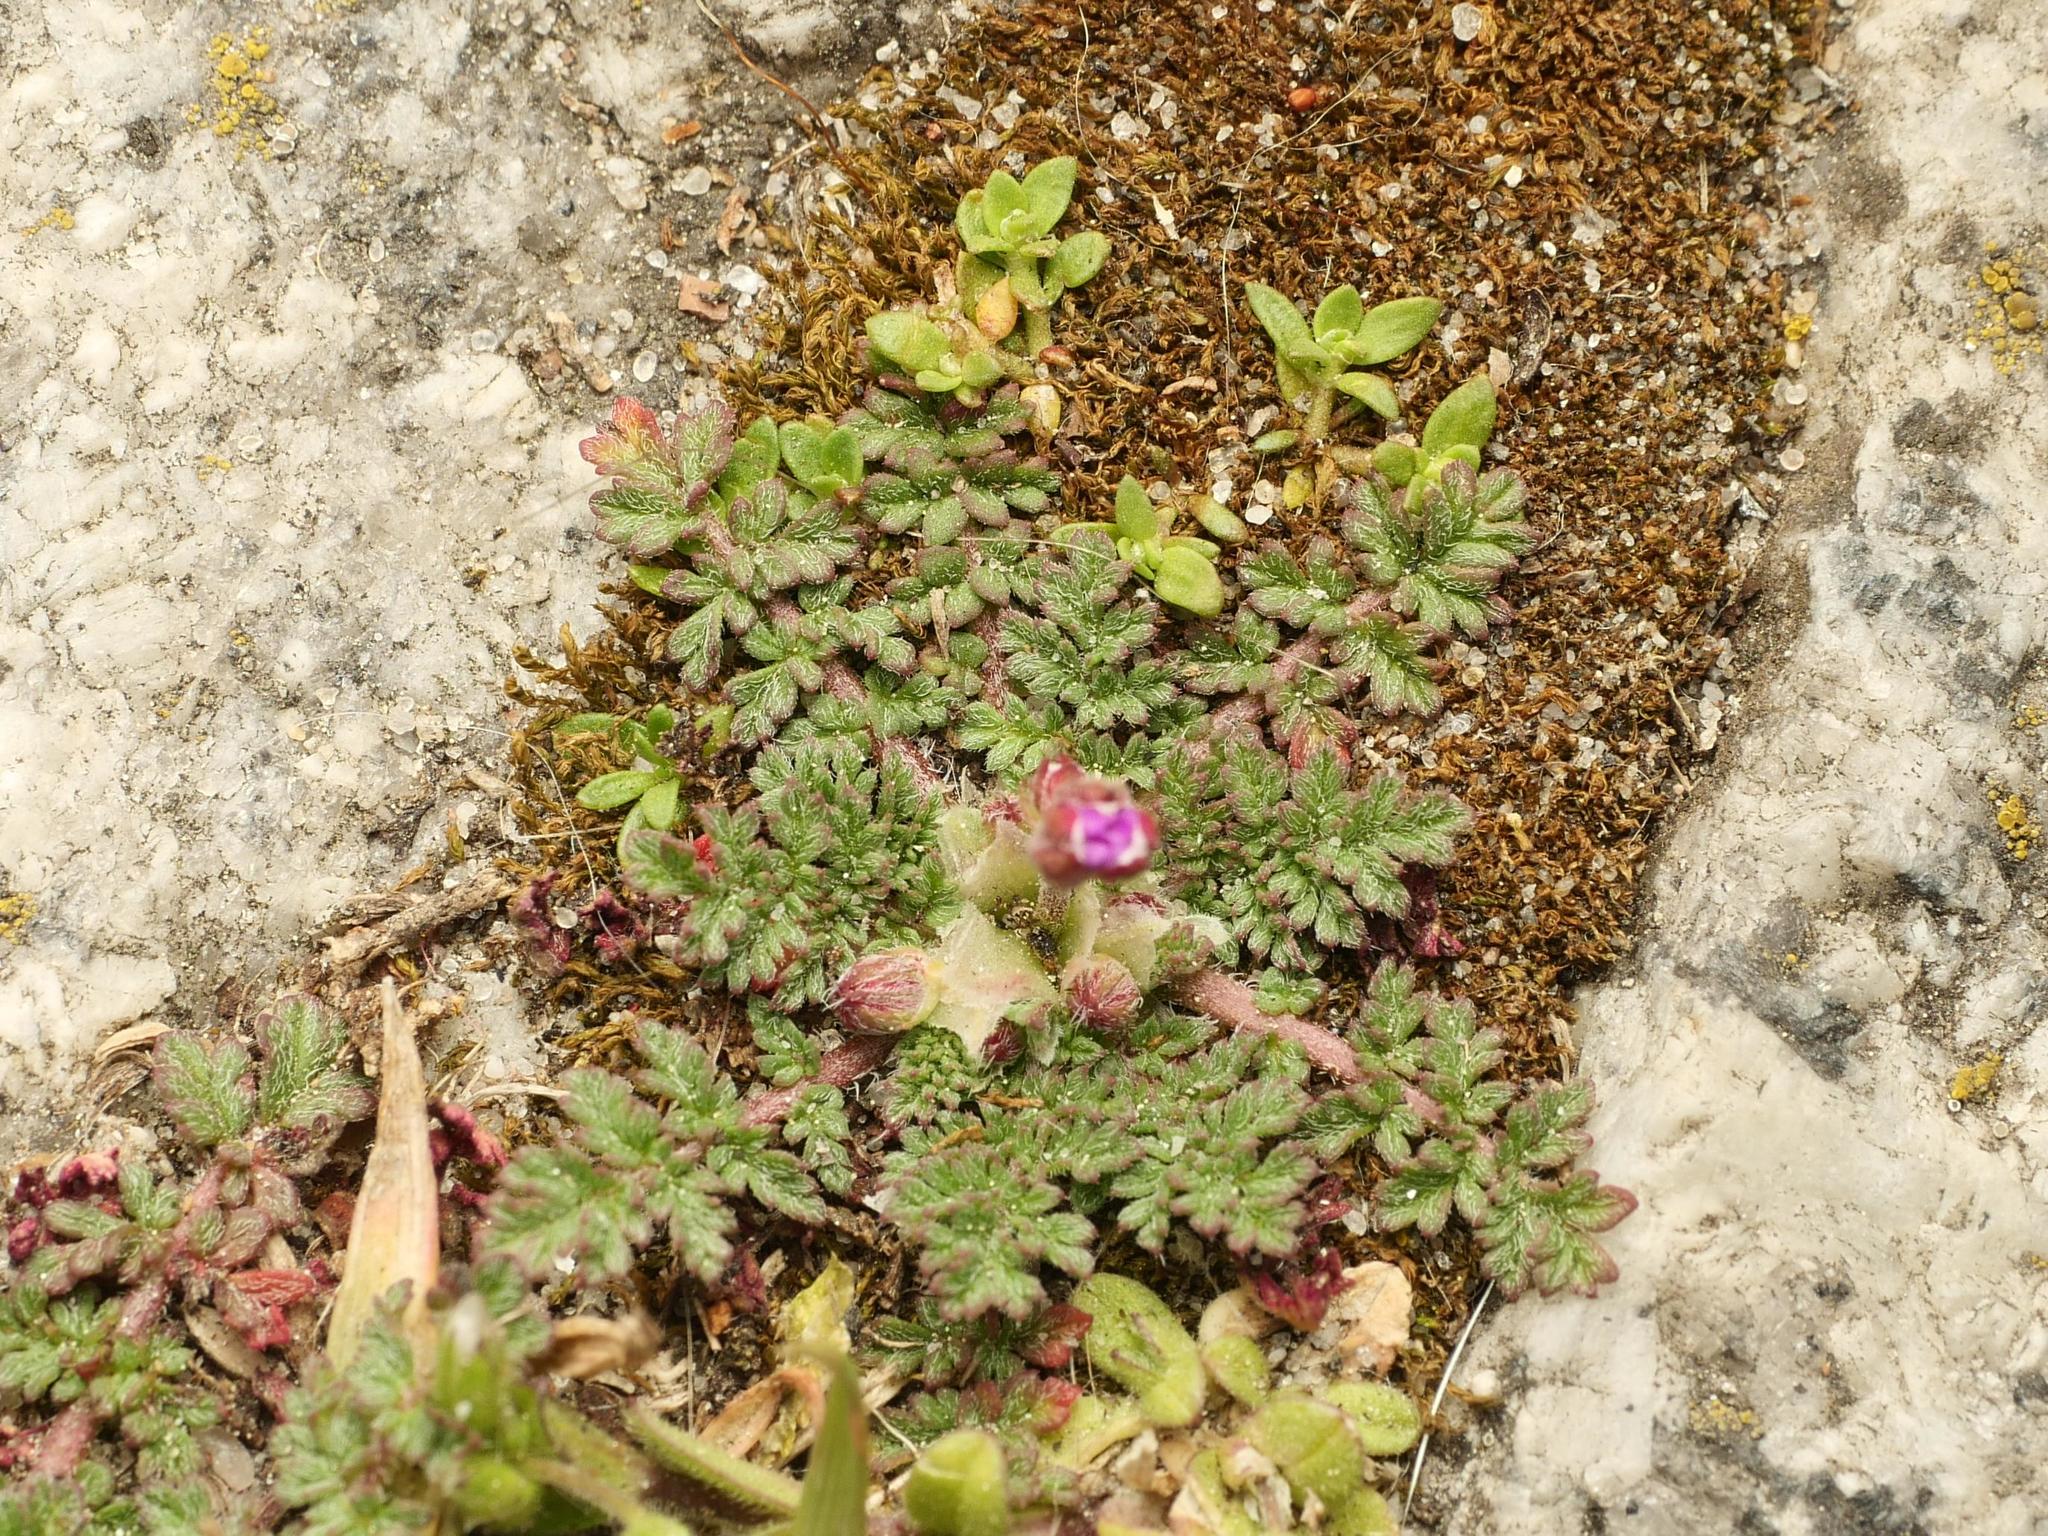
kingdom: Plantae
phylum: Tracheophyta
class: Magnoliopsida
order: Geraniales
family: Geraniaceae
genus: Erodium
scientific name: Erodium cicutarium
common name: Common stork's-bill
